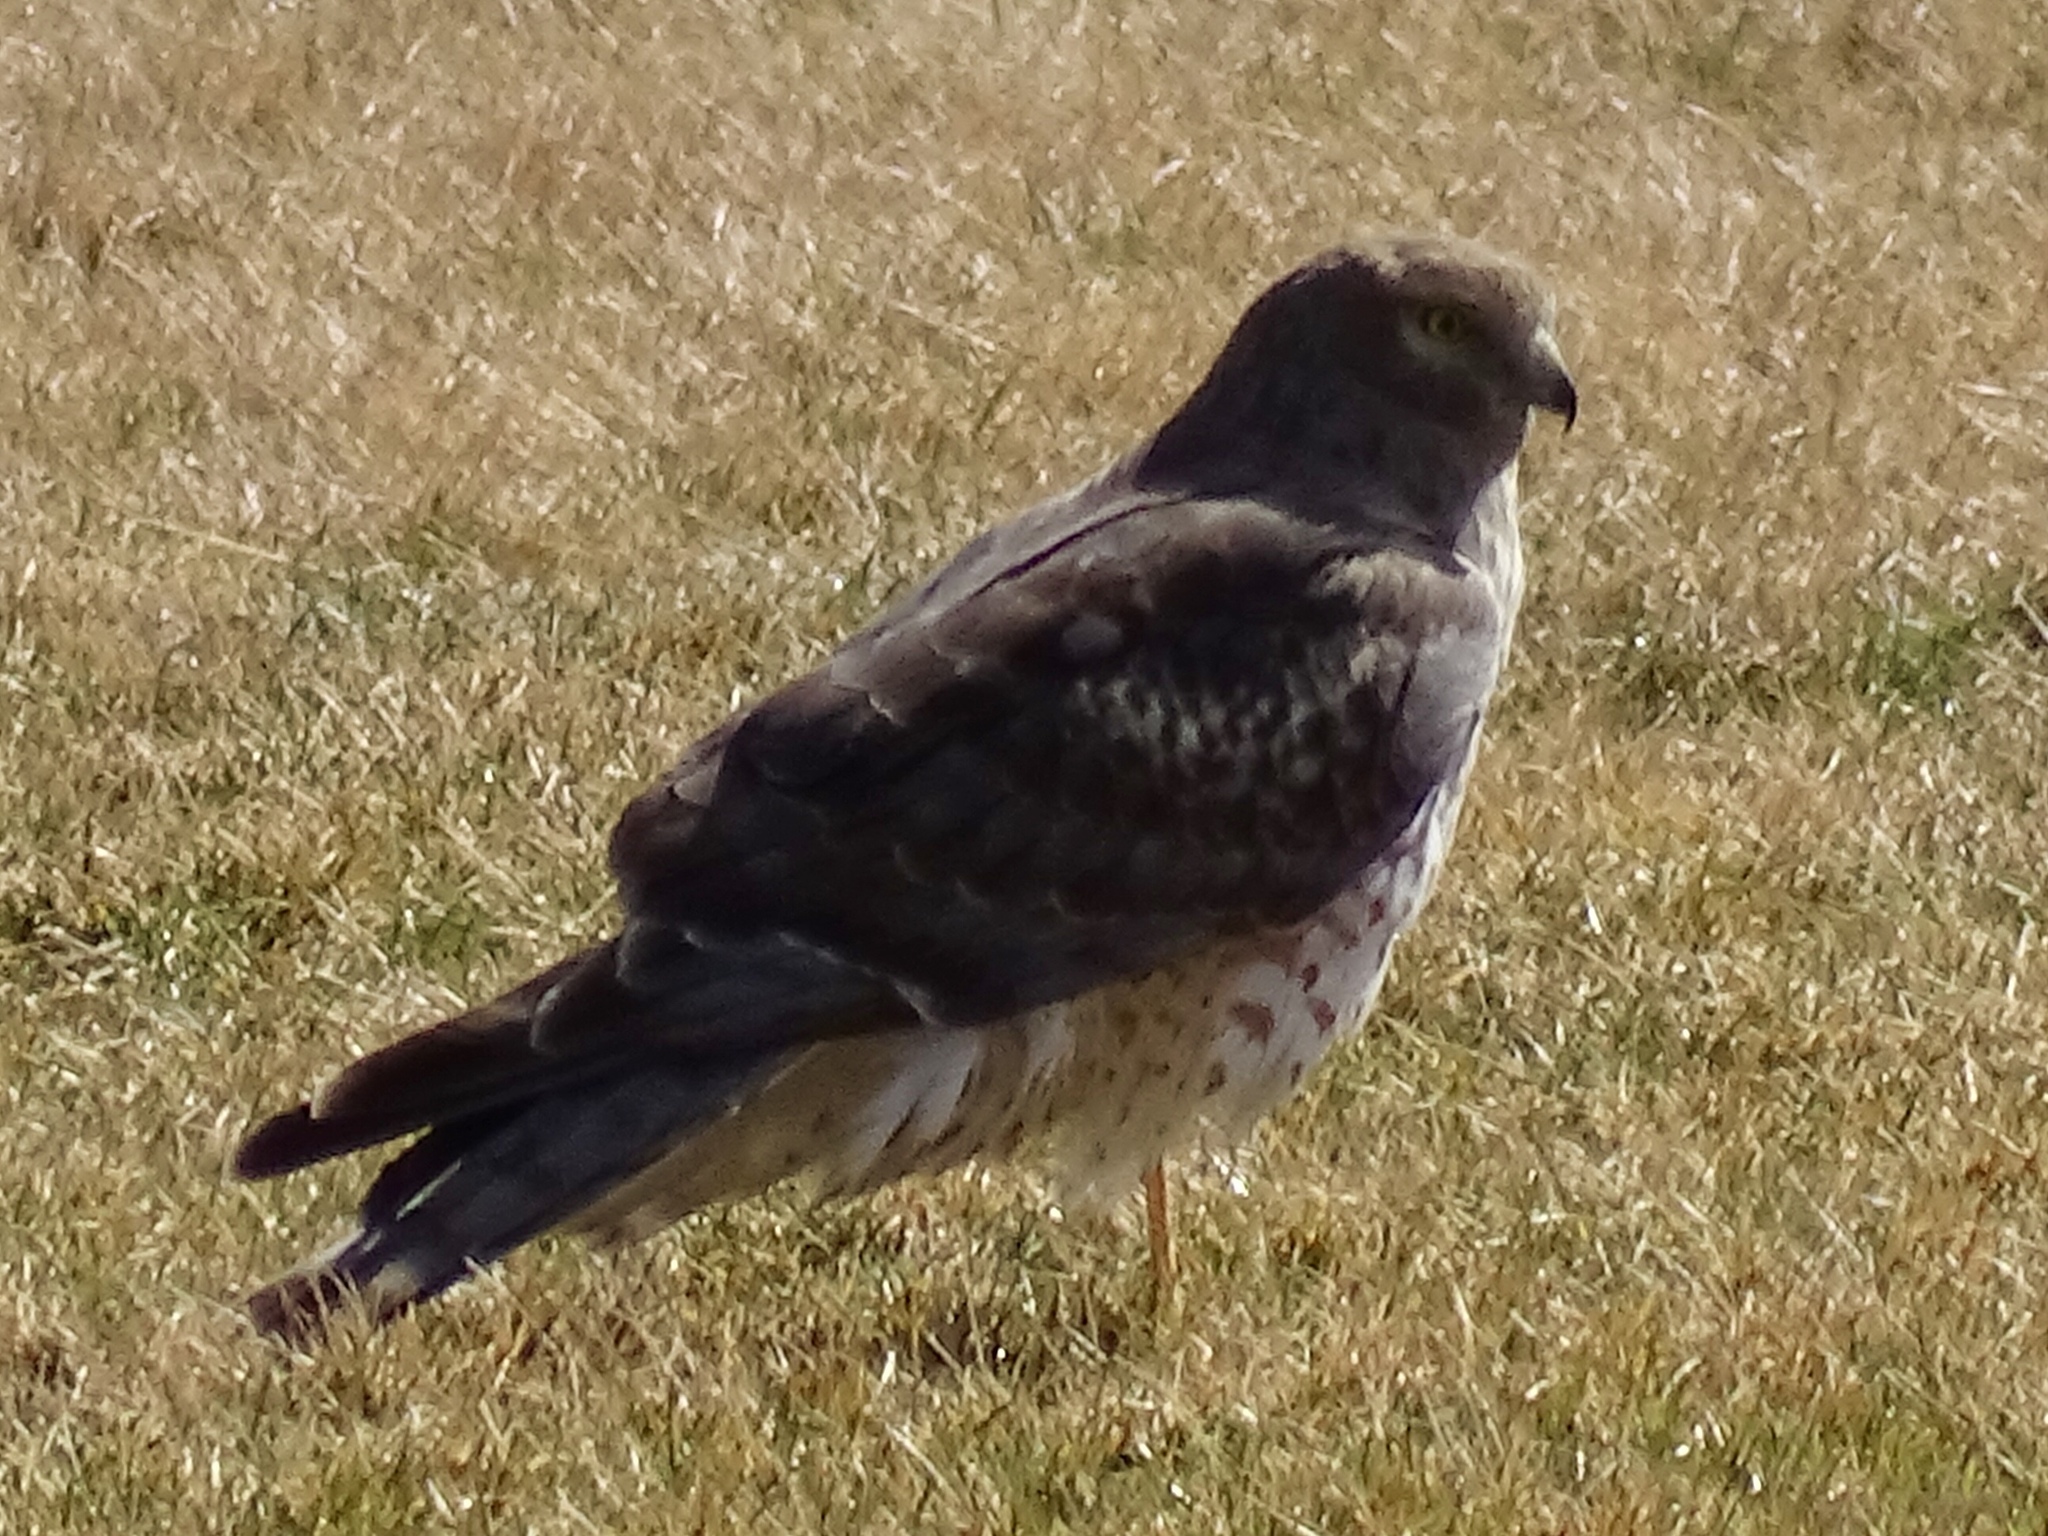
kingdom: Animalia
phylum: Chordata
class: Aves
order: Accipitriformes
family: Accipitridae
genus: Circus
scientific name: Circus cyaneus
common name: Hen harrier
